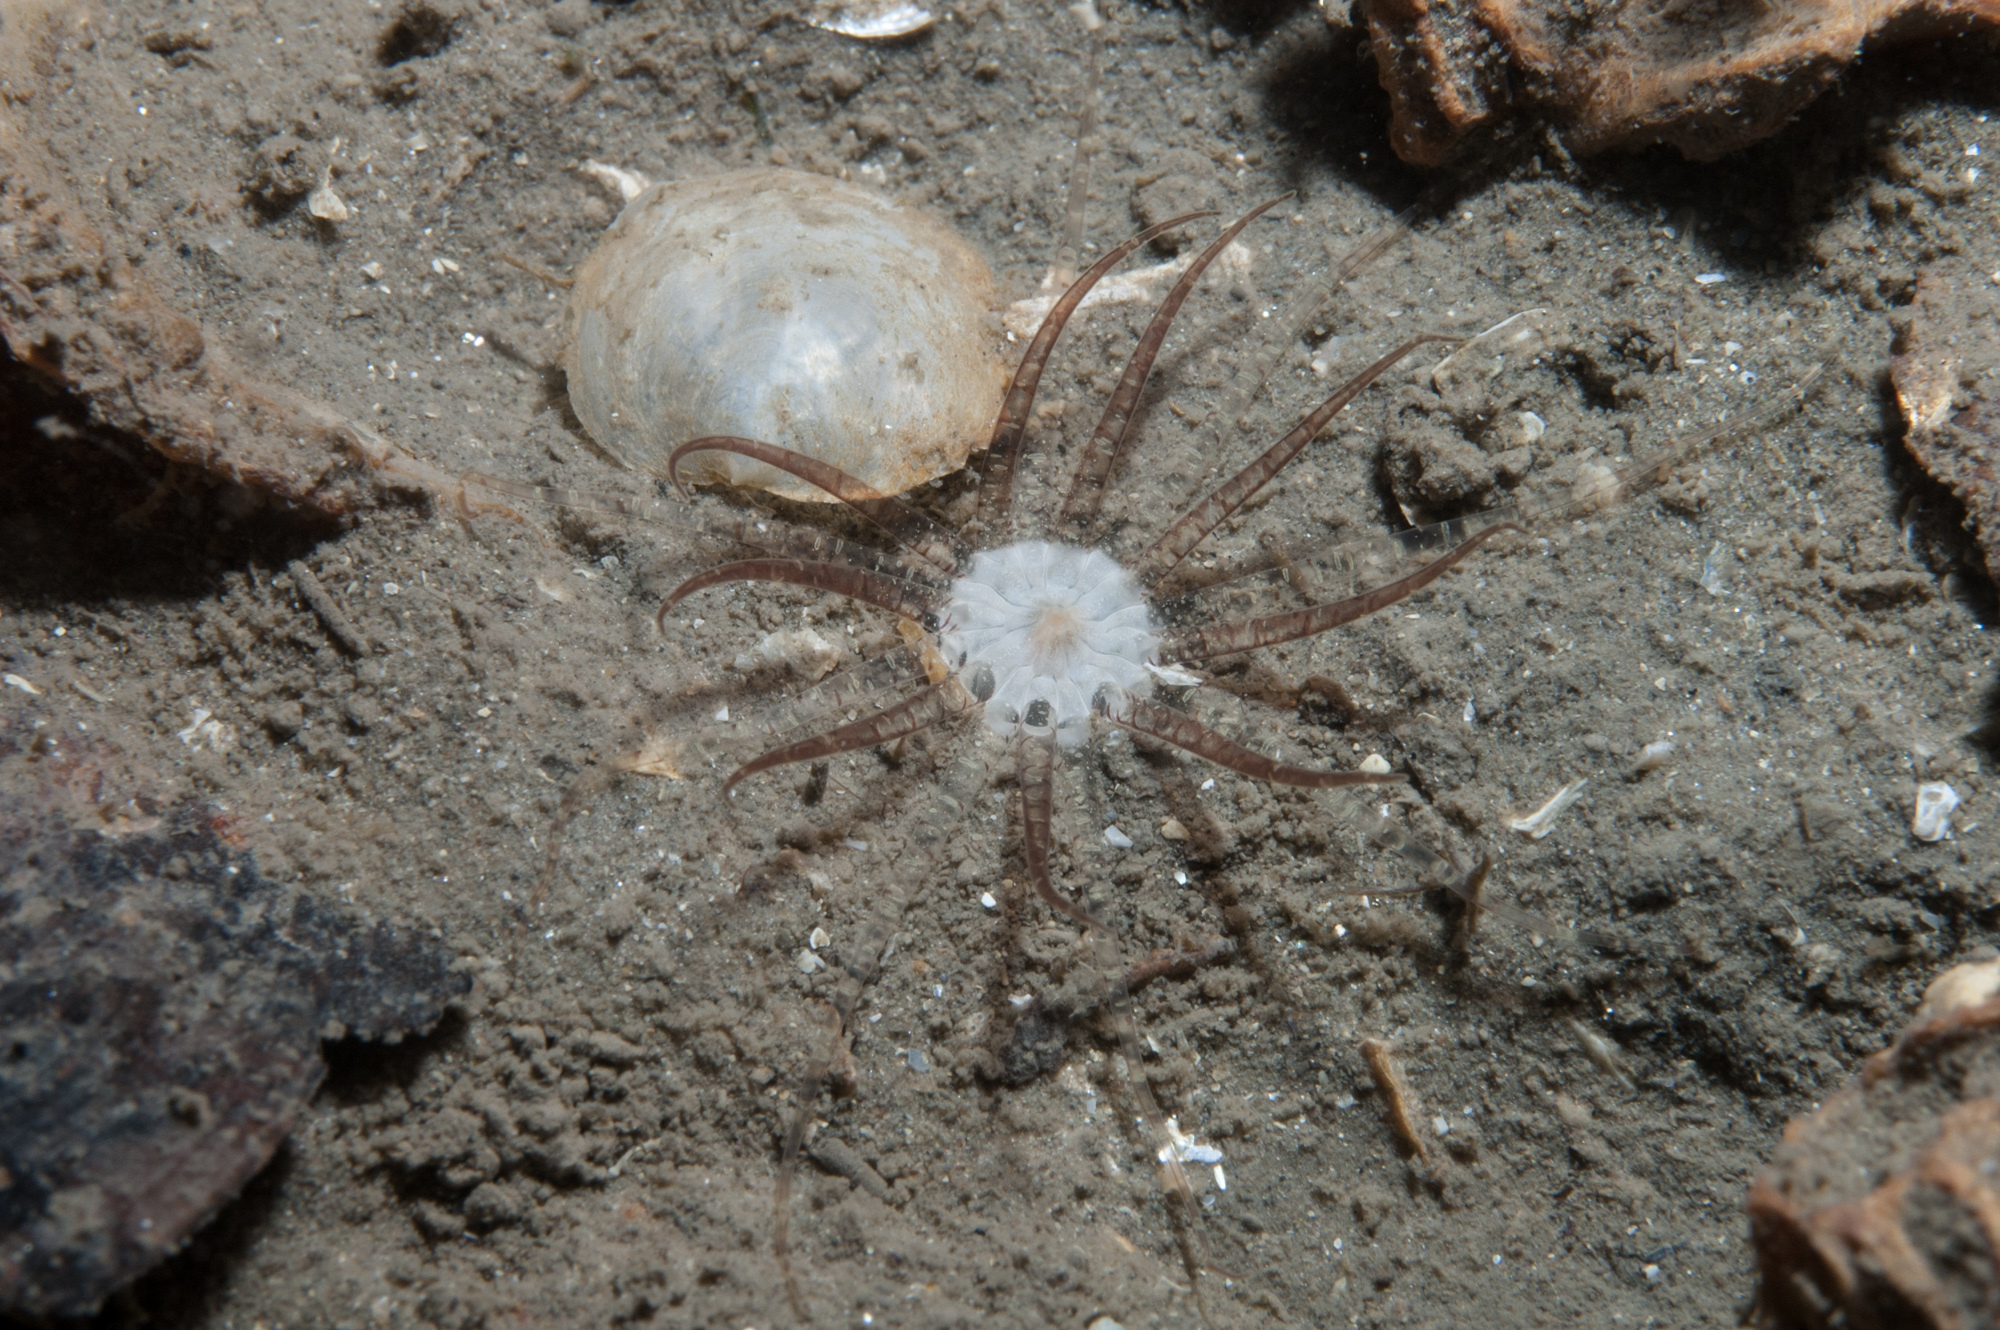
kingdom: Animalia
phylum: Cnidaria
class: Anthozoa
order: Actiniaria
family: Edwardsiidae
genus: Edwardsia
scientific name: Edwardsia claparedii
